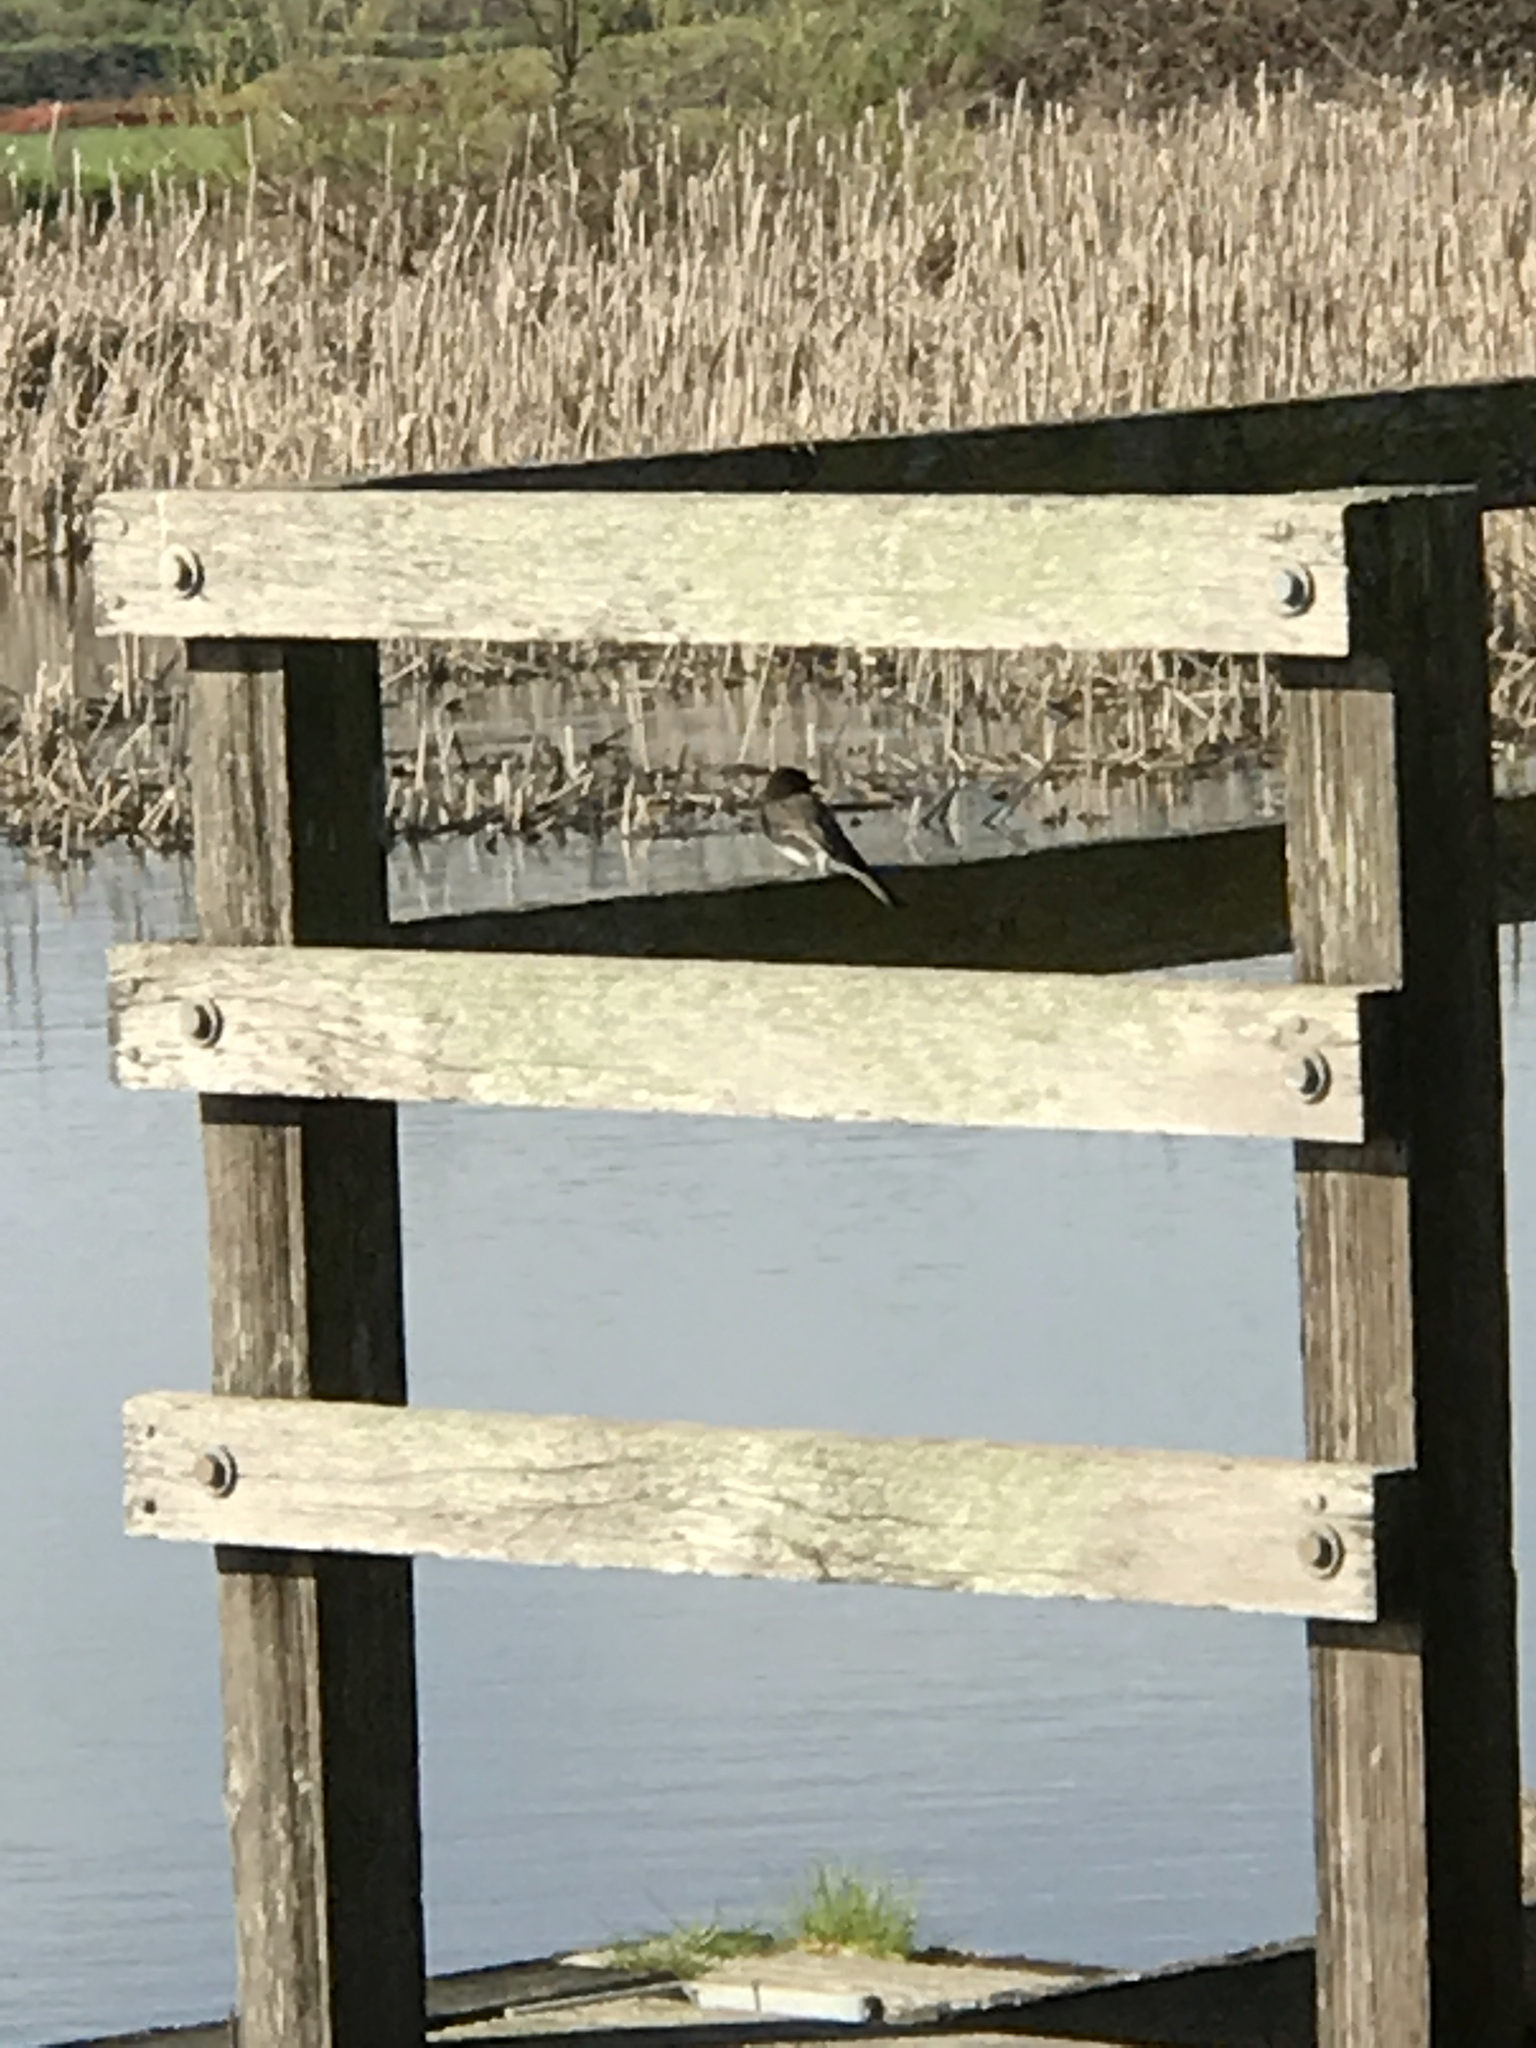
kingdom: Animalia
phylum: Chordata
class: Aves
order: Passeriformes
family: Tyrannidae
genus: Sayornis
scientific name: Sayornis nigricans
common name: Black phoebe
